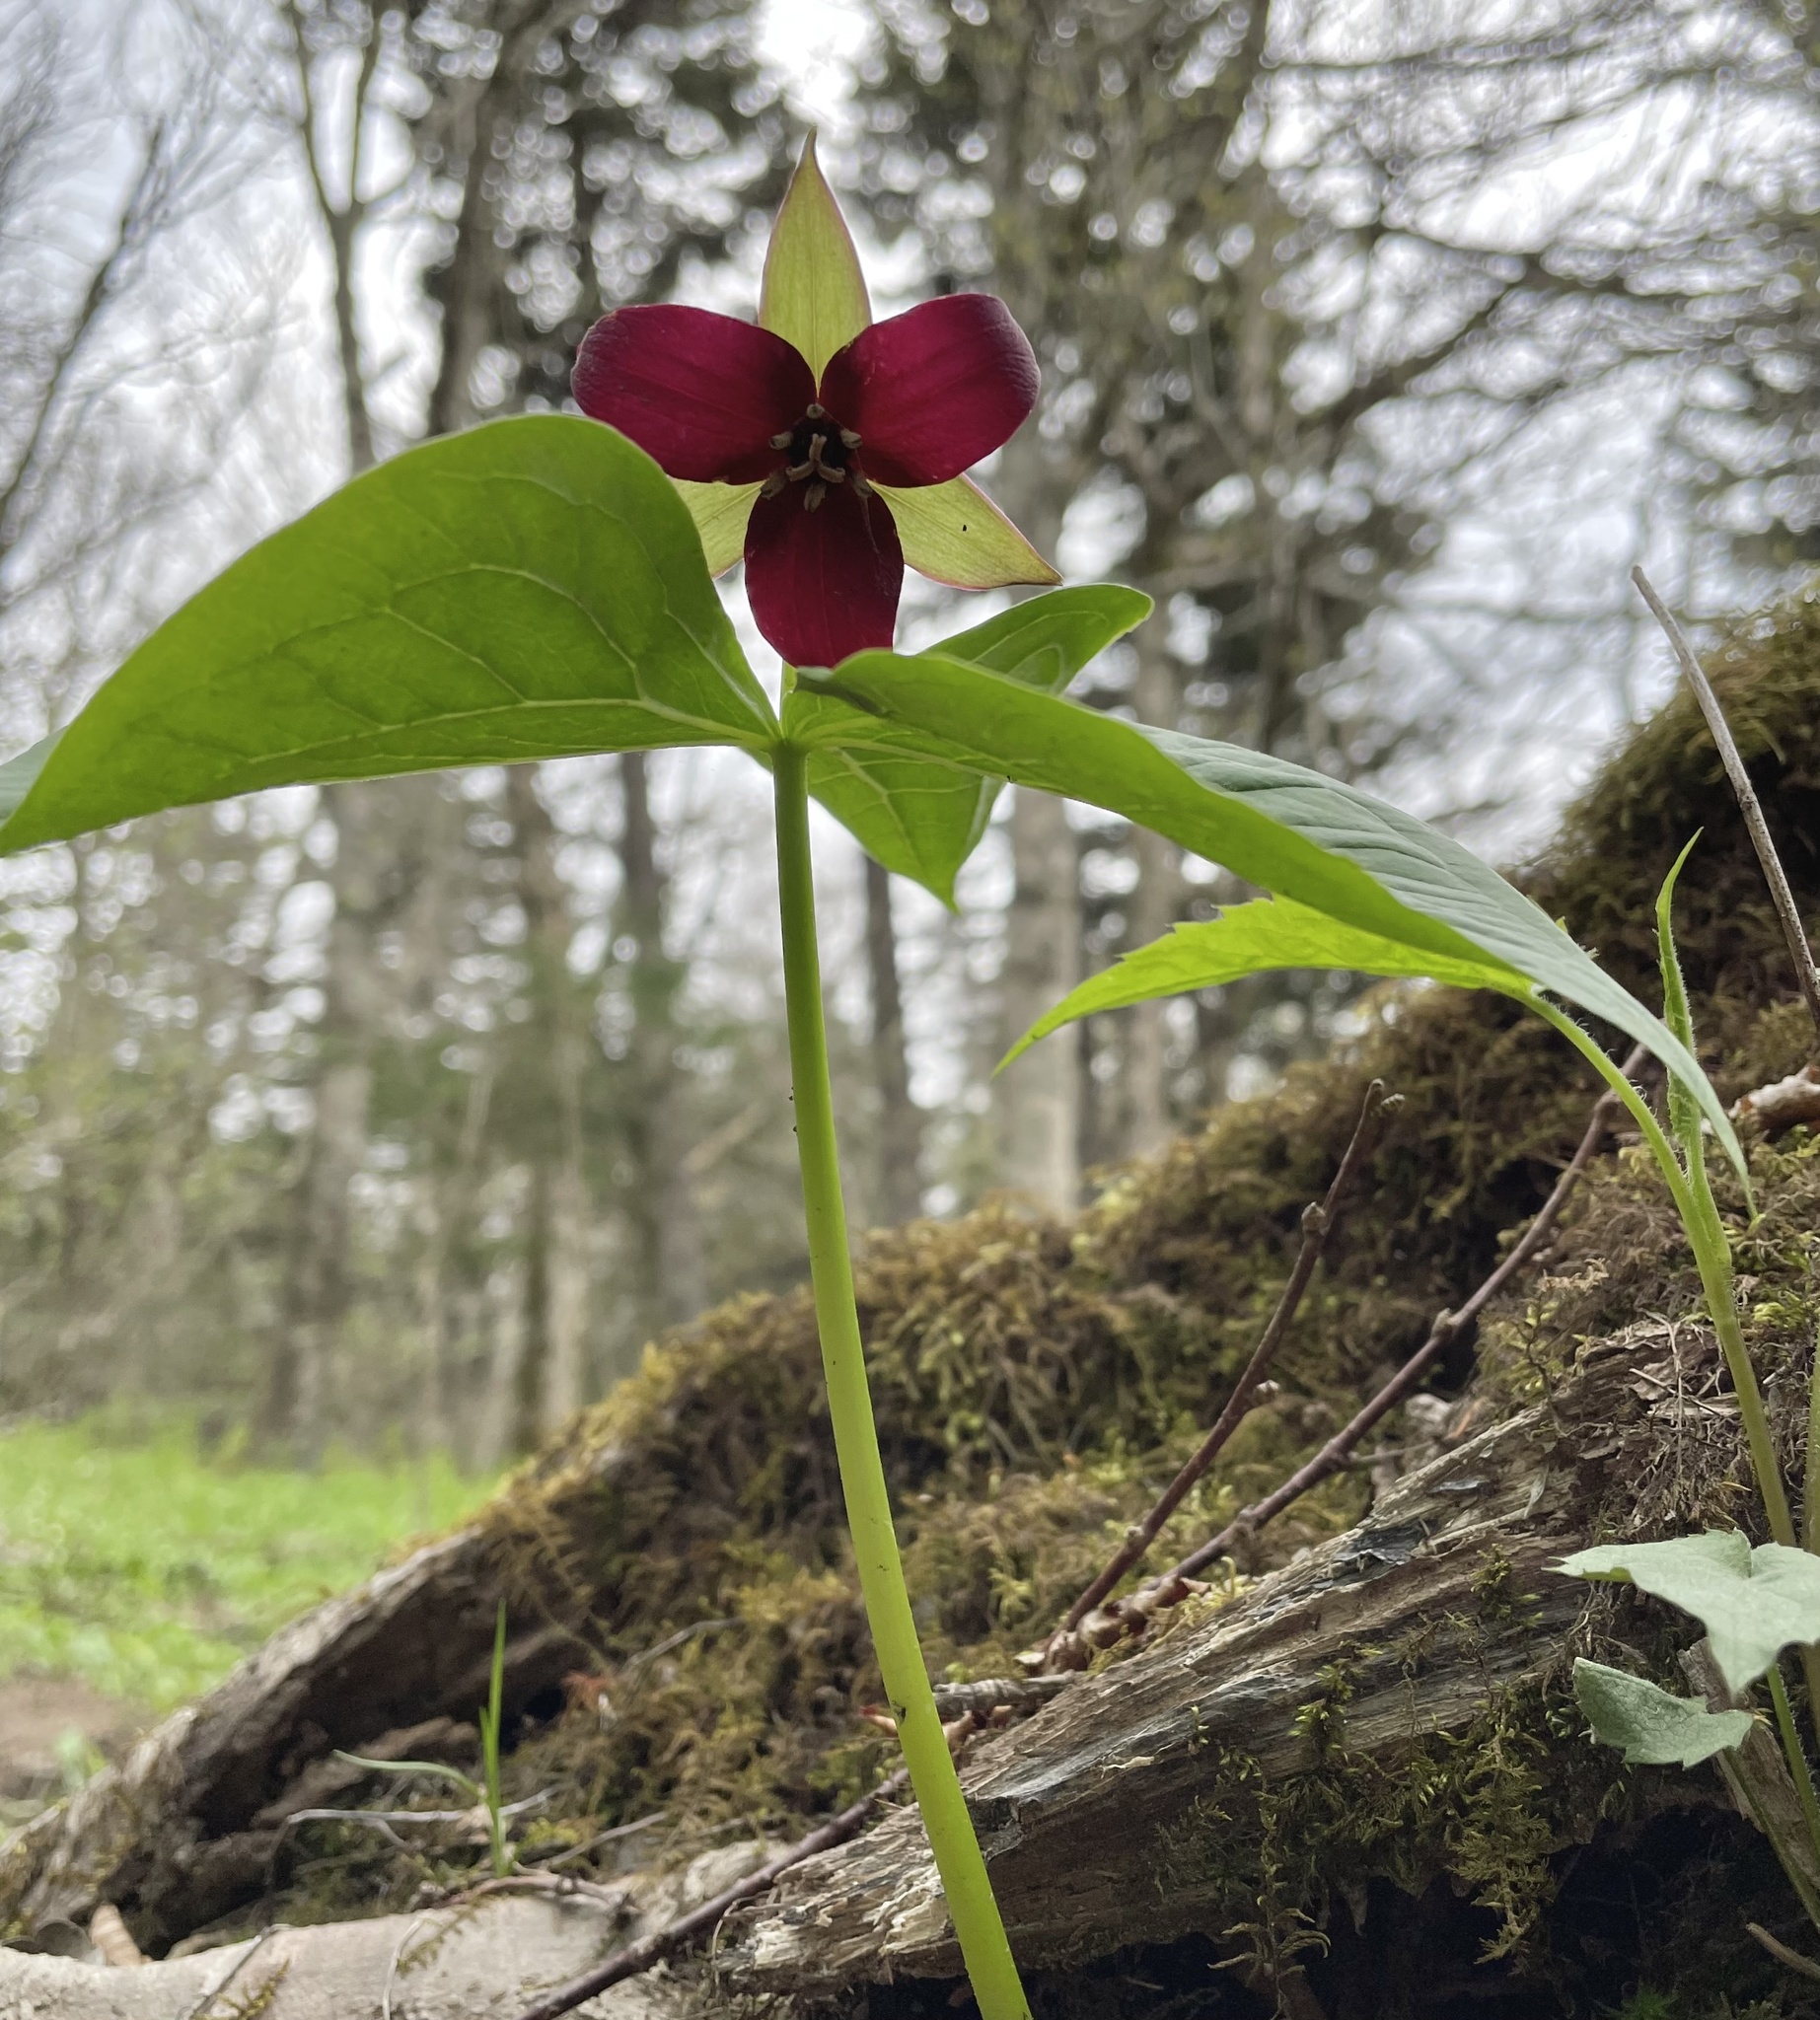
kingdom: Plantae
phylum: Tracheophyta
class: Liliopsida
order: Liliales
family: Melanthiaceae
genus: Trillium
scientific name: Trillium erectum
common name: Purple trillium
